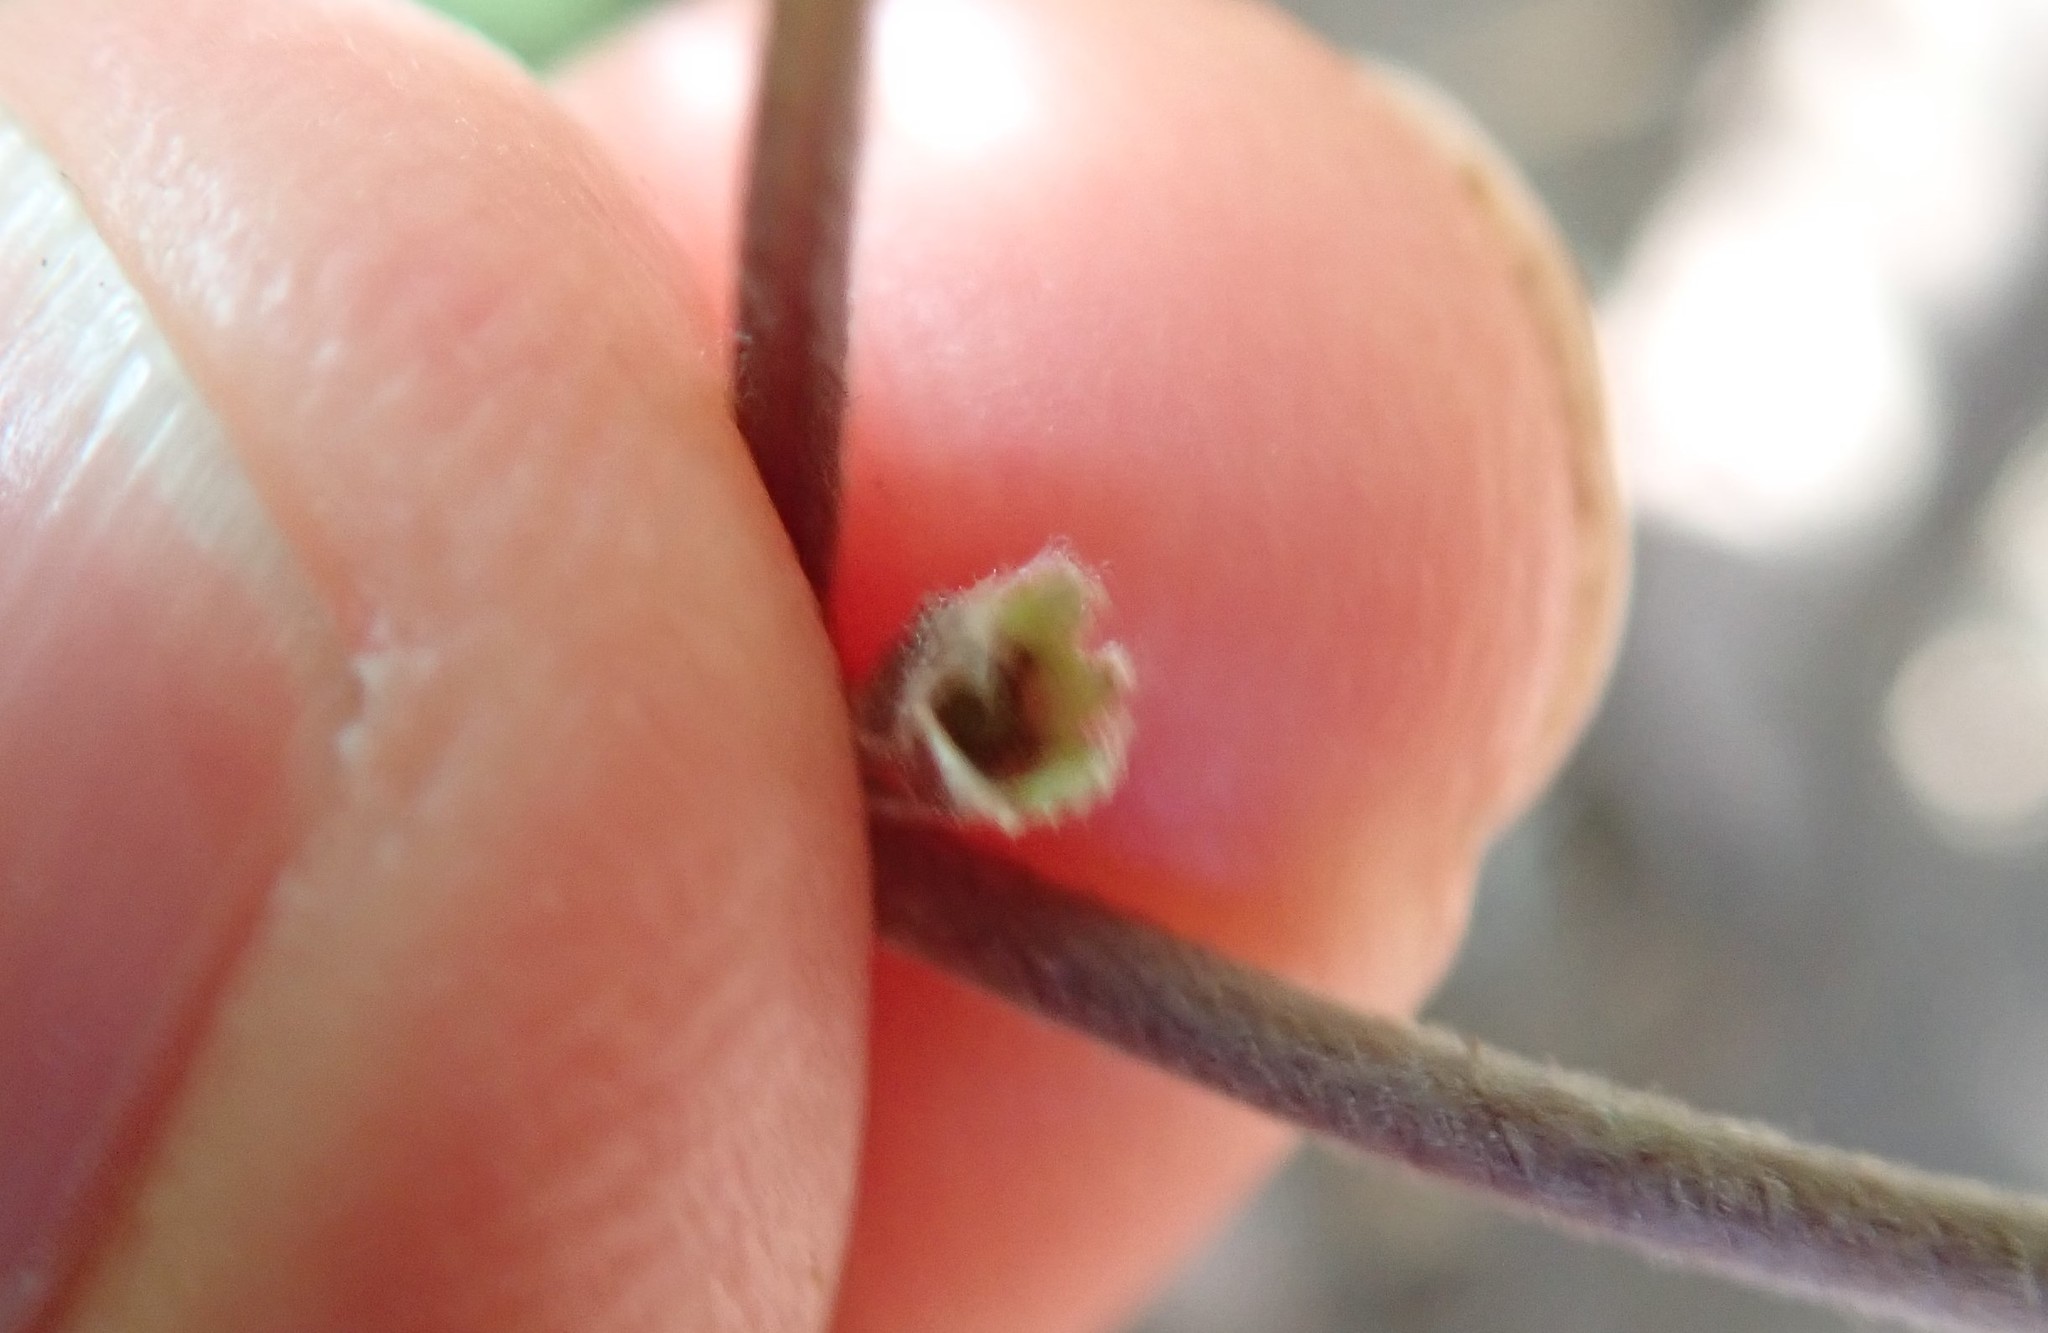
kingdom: Plantae
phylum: Tracheophyta
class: Magnoliopsida
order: Solanales
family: Convolvulaceae
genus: Dichondra
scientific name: Dichondra occidentalis
